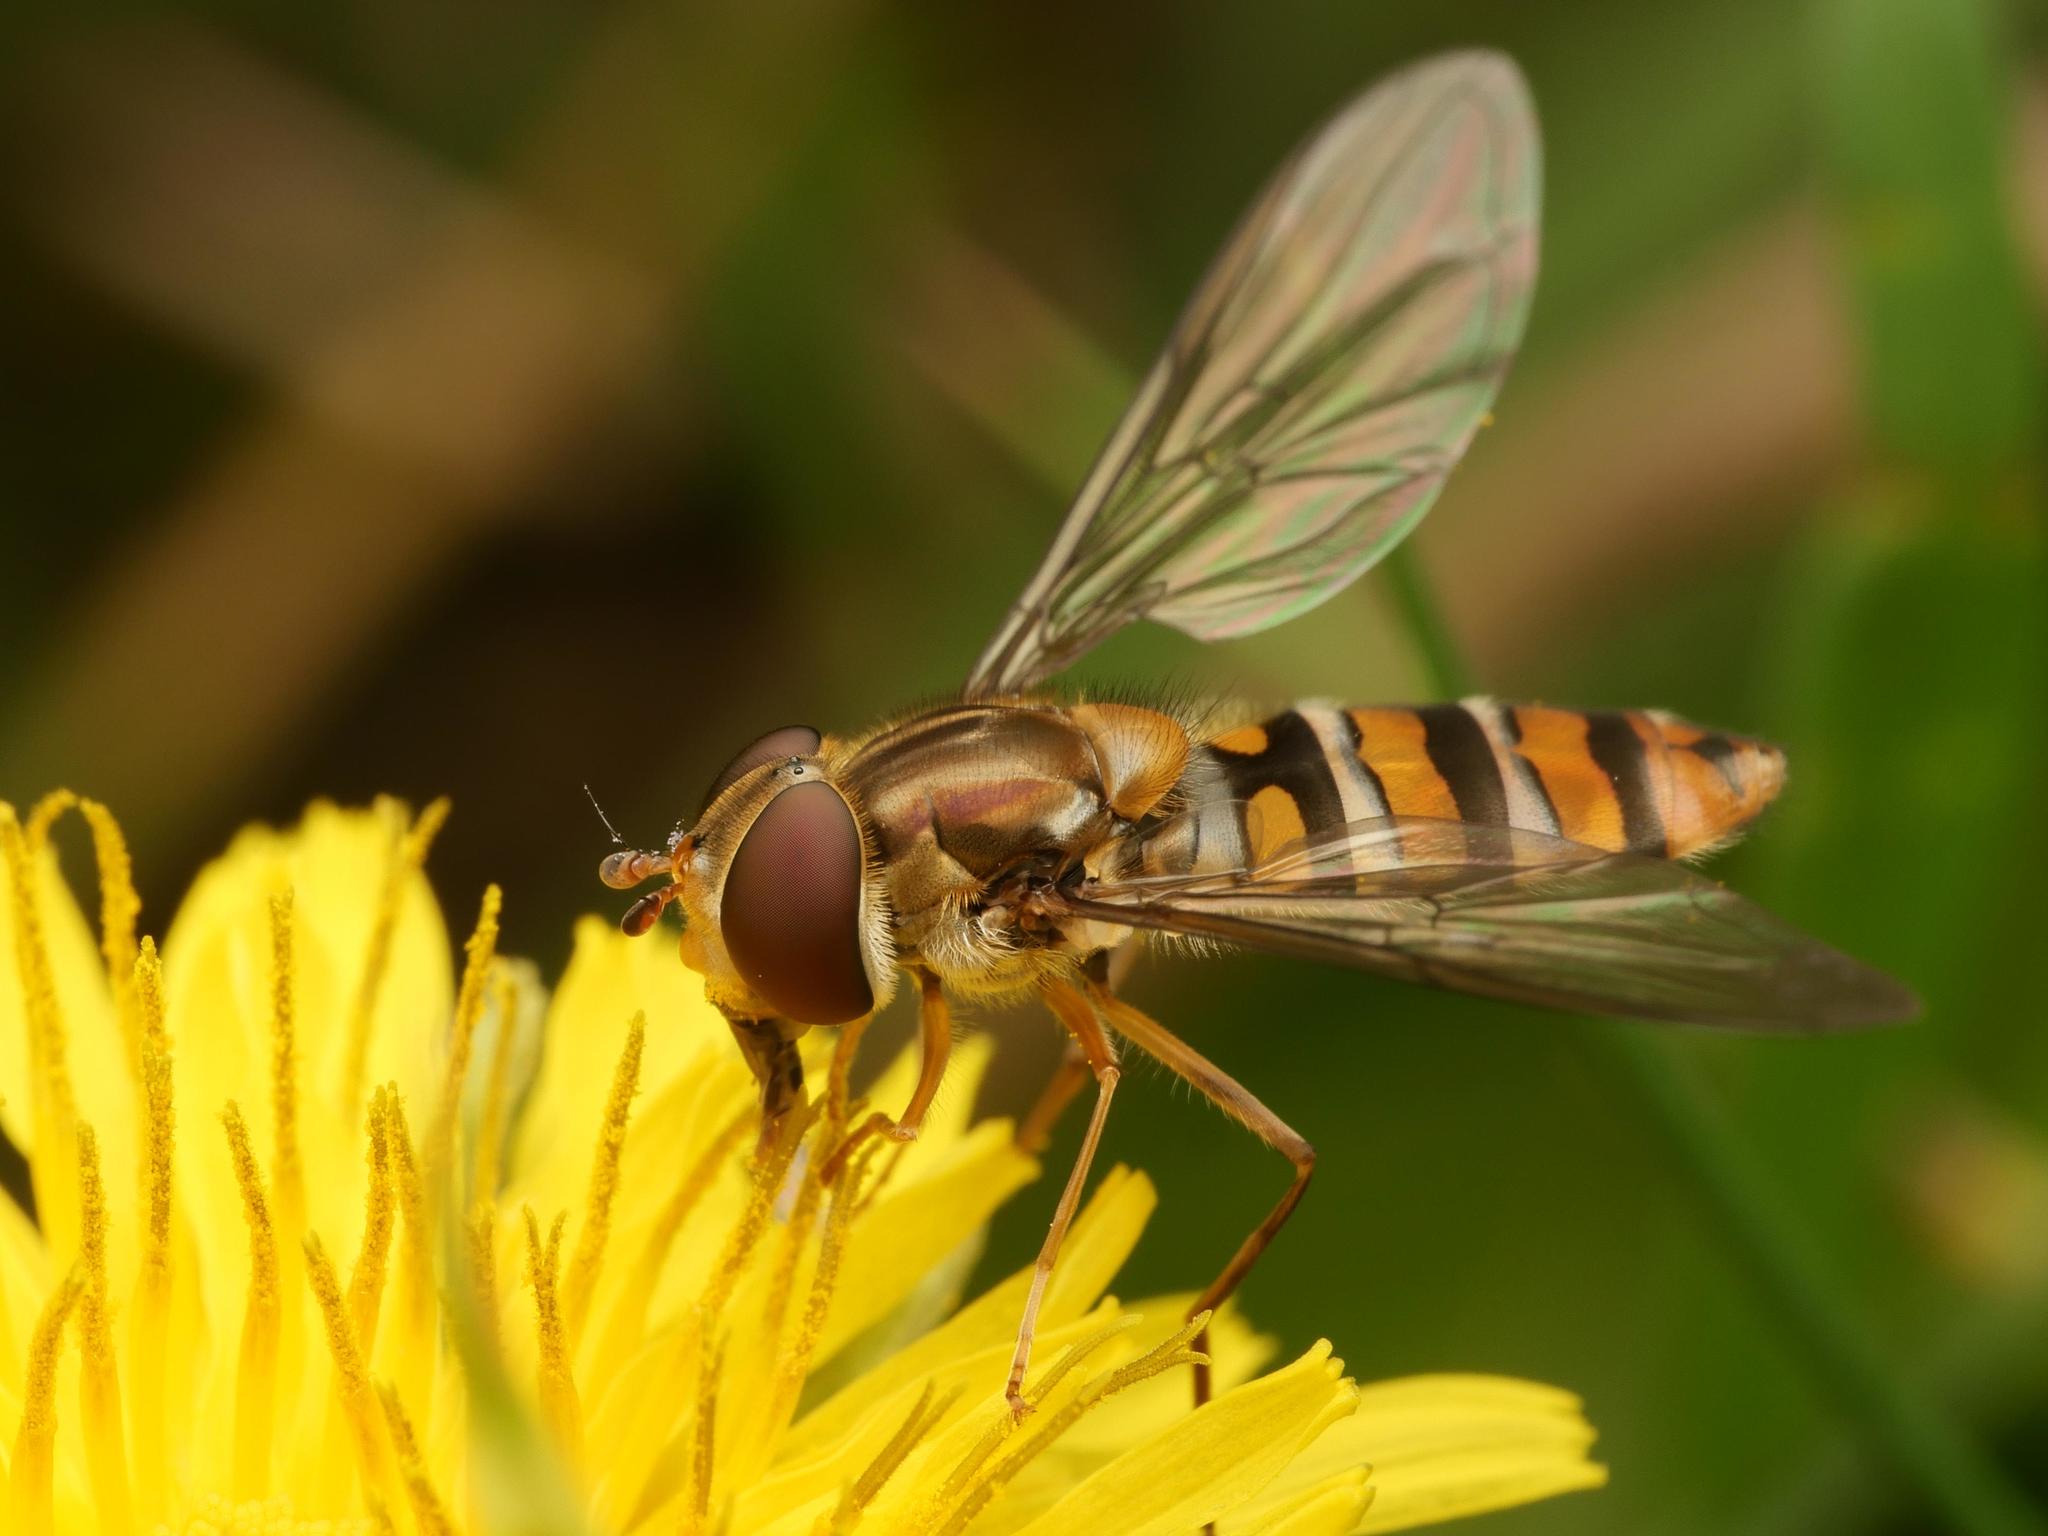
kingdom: Animalia
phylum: Arthropoda
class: Insecta
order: Diptera
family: Syrphidae
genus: Episyrphus
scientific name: Episyrphus balteatus
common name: Marmalade hoverfly
